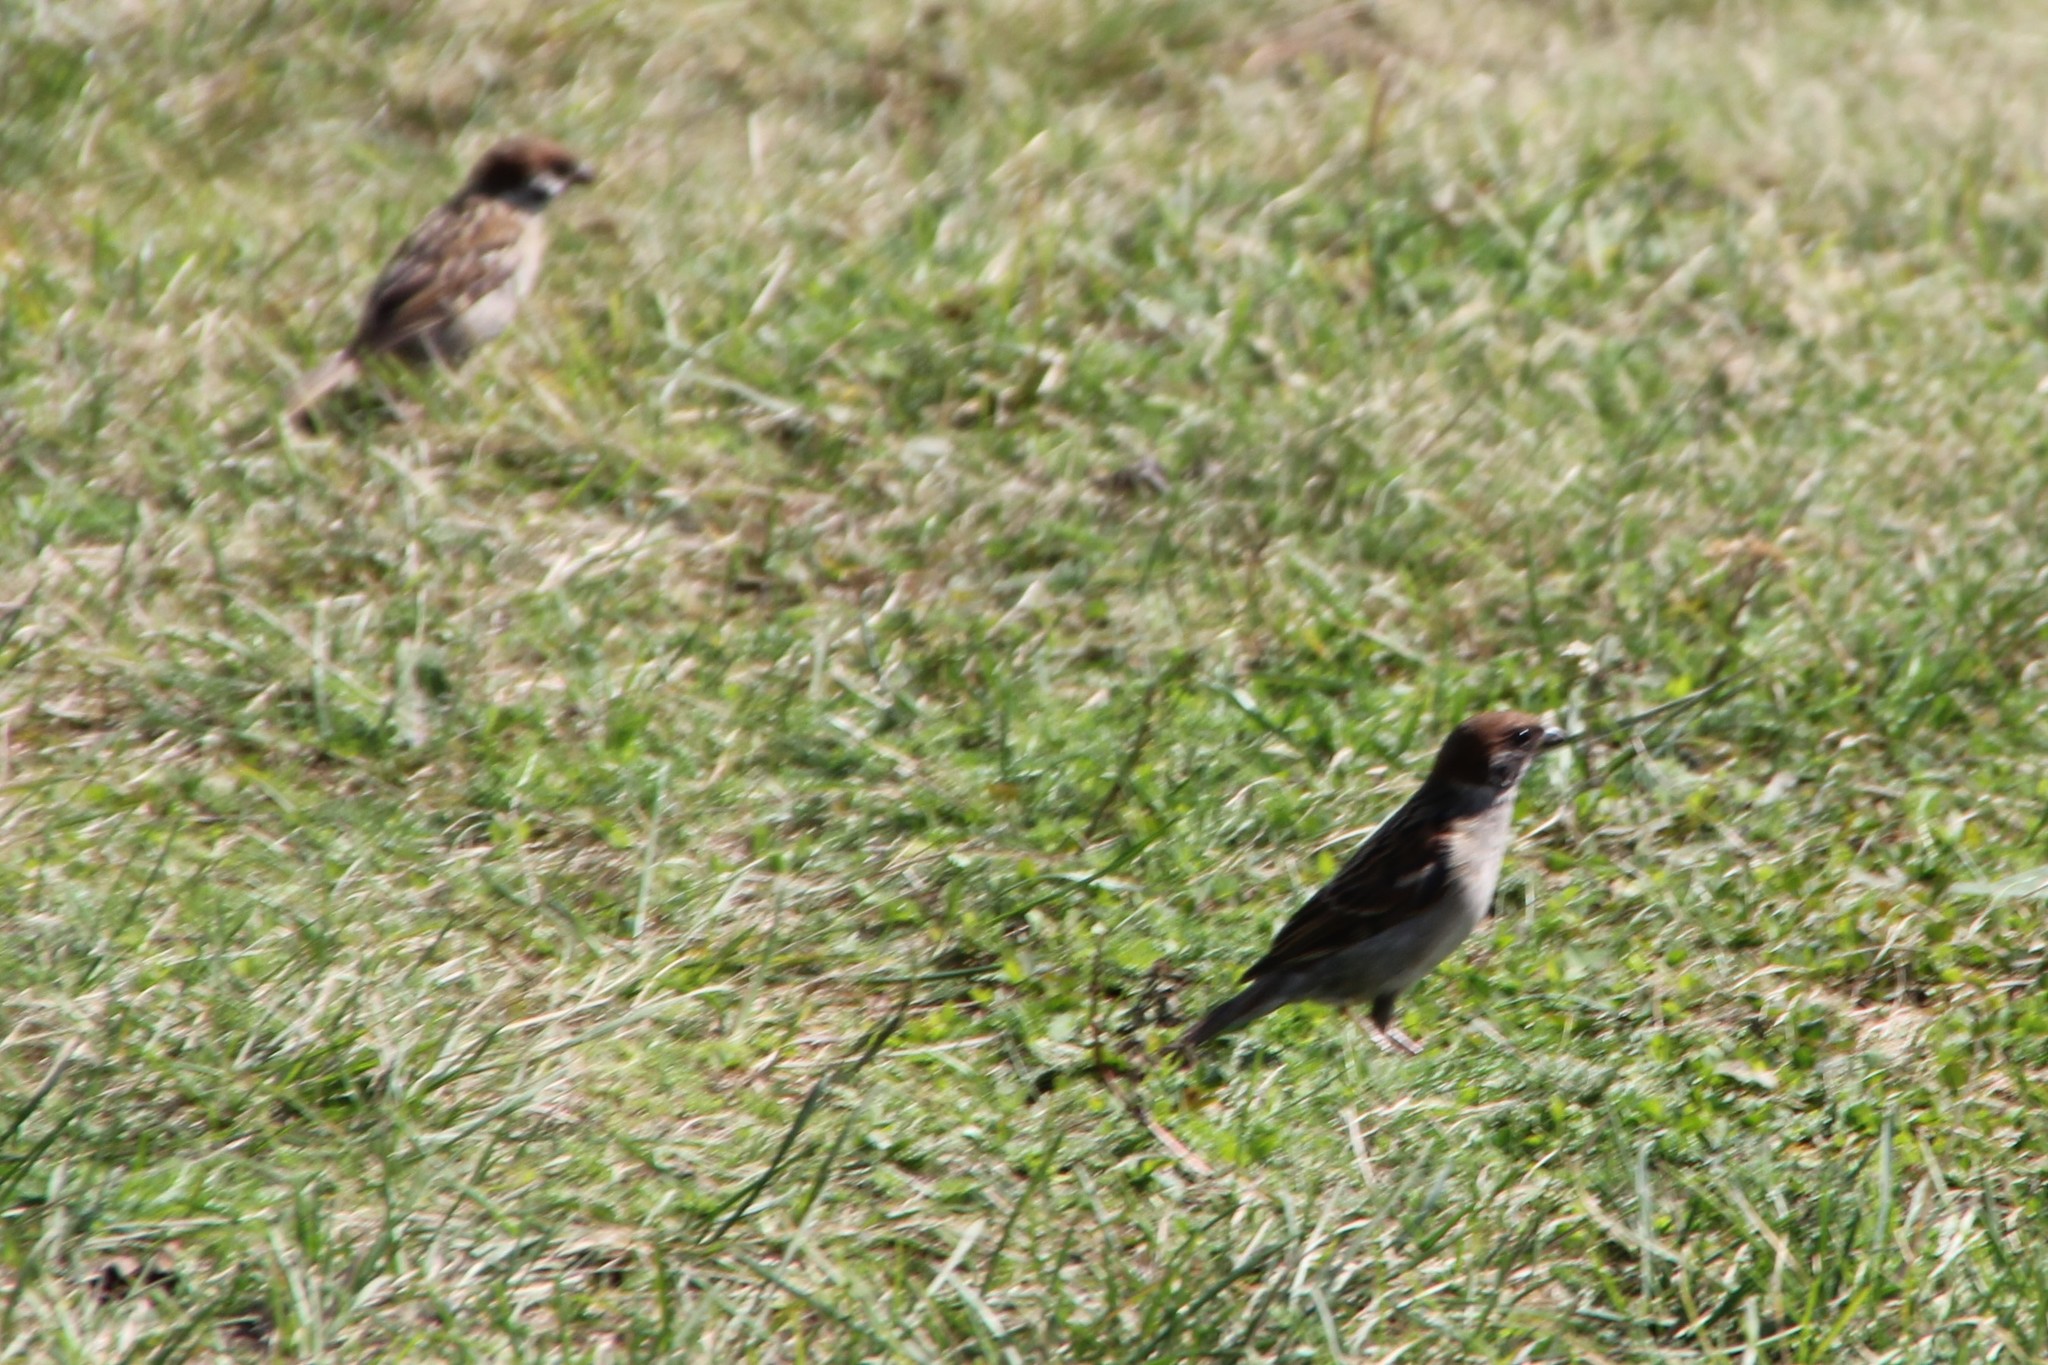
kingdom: Animalia
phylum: Chordata
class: Aves
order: Passeriformes
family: Passeridae
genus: Passer
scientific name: Passer montanus
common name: Eurasian tree sparrow
